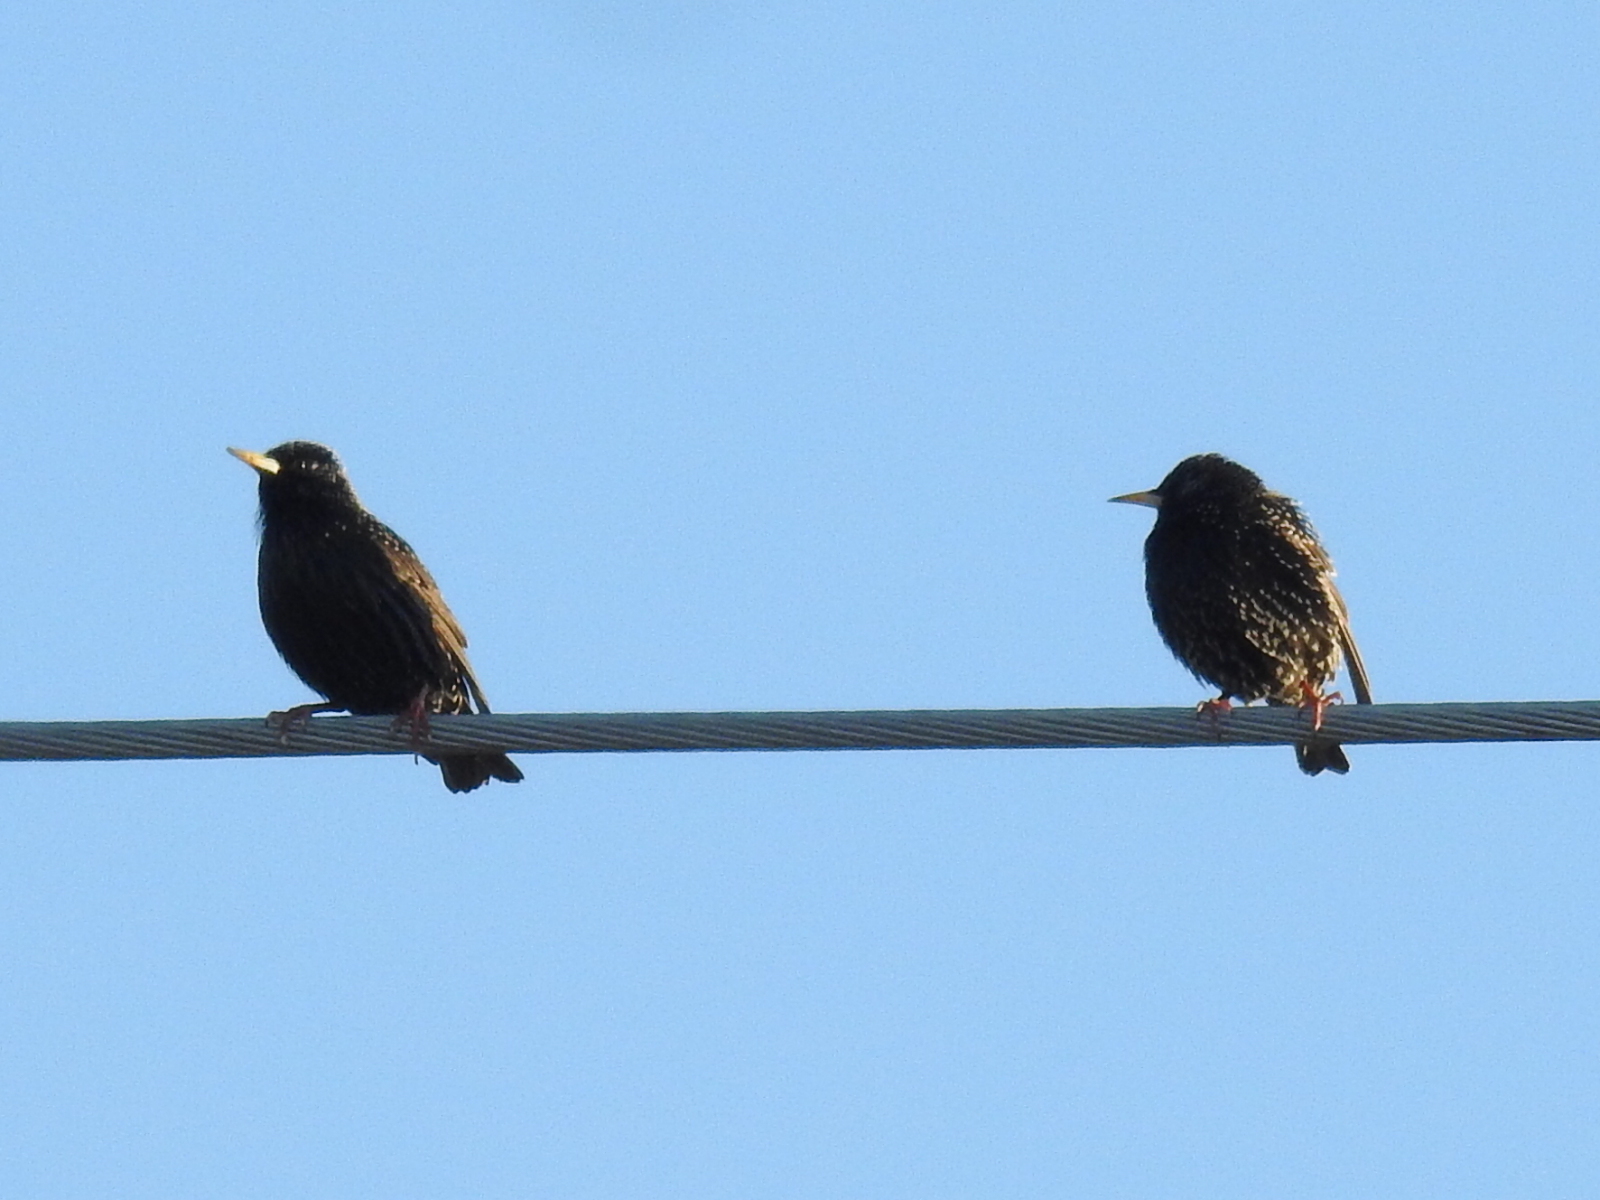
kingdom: Animalia
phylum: Chordata
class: Aves
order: Passeriformes
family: Sturnidae
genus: Sturnus
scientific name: Sturnus vulgaris
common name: Common starling
